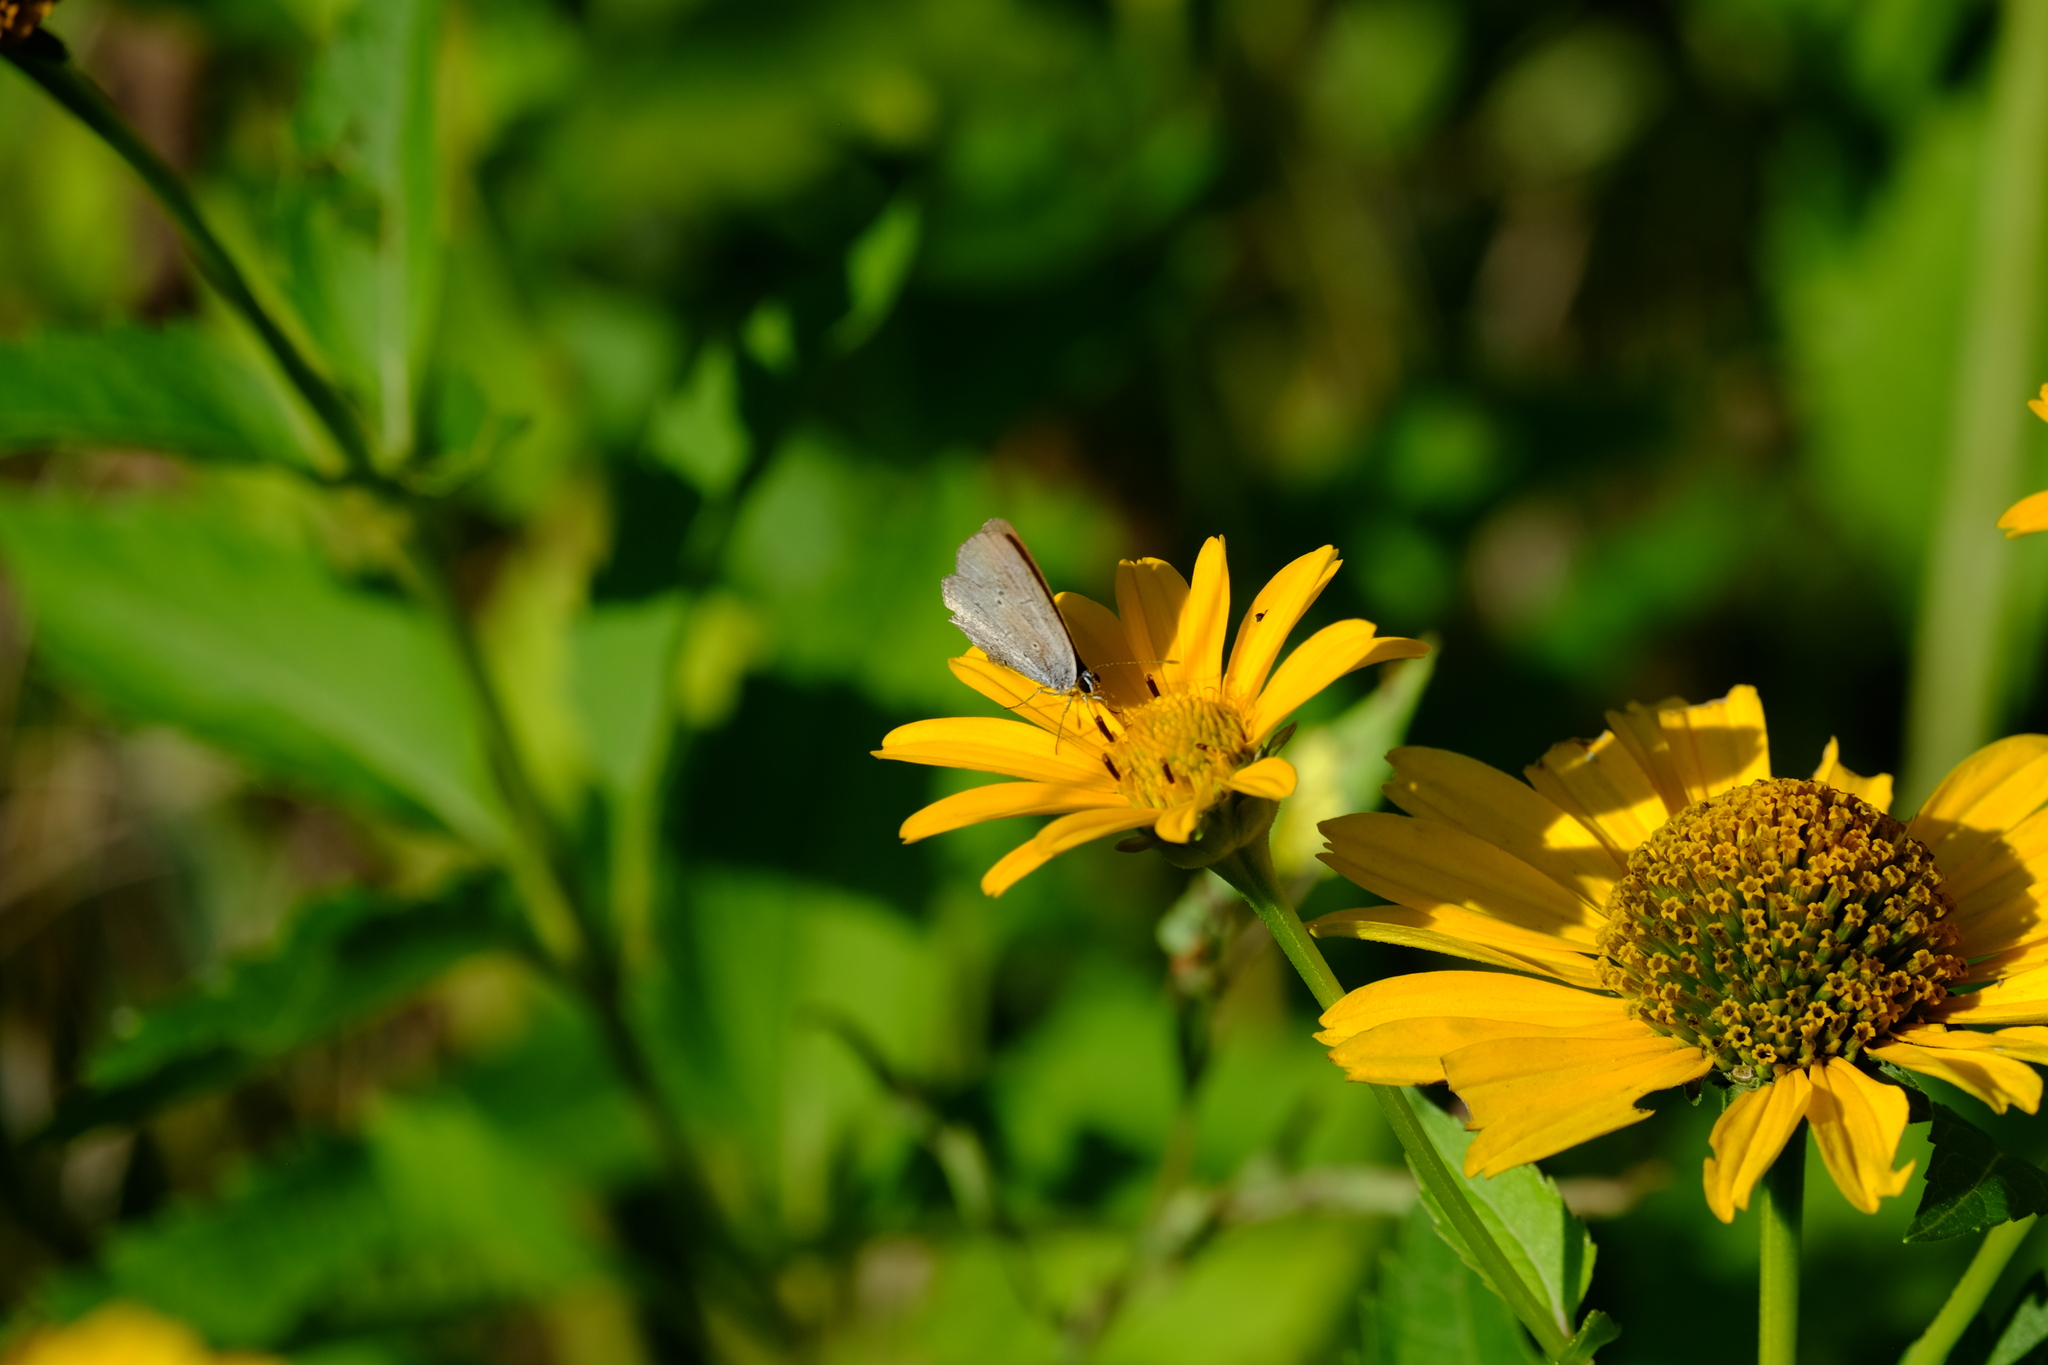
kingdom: Animalia
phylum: Arthropoda
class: Insecta
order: Lepidoptera
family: Lycaenidae
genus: Elkalyce
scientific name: Elkalyce decolorata
